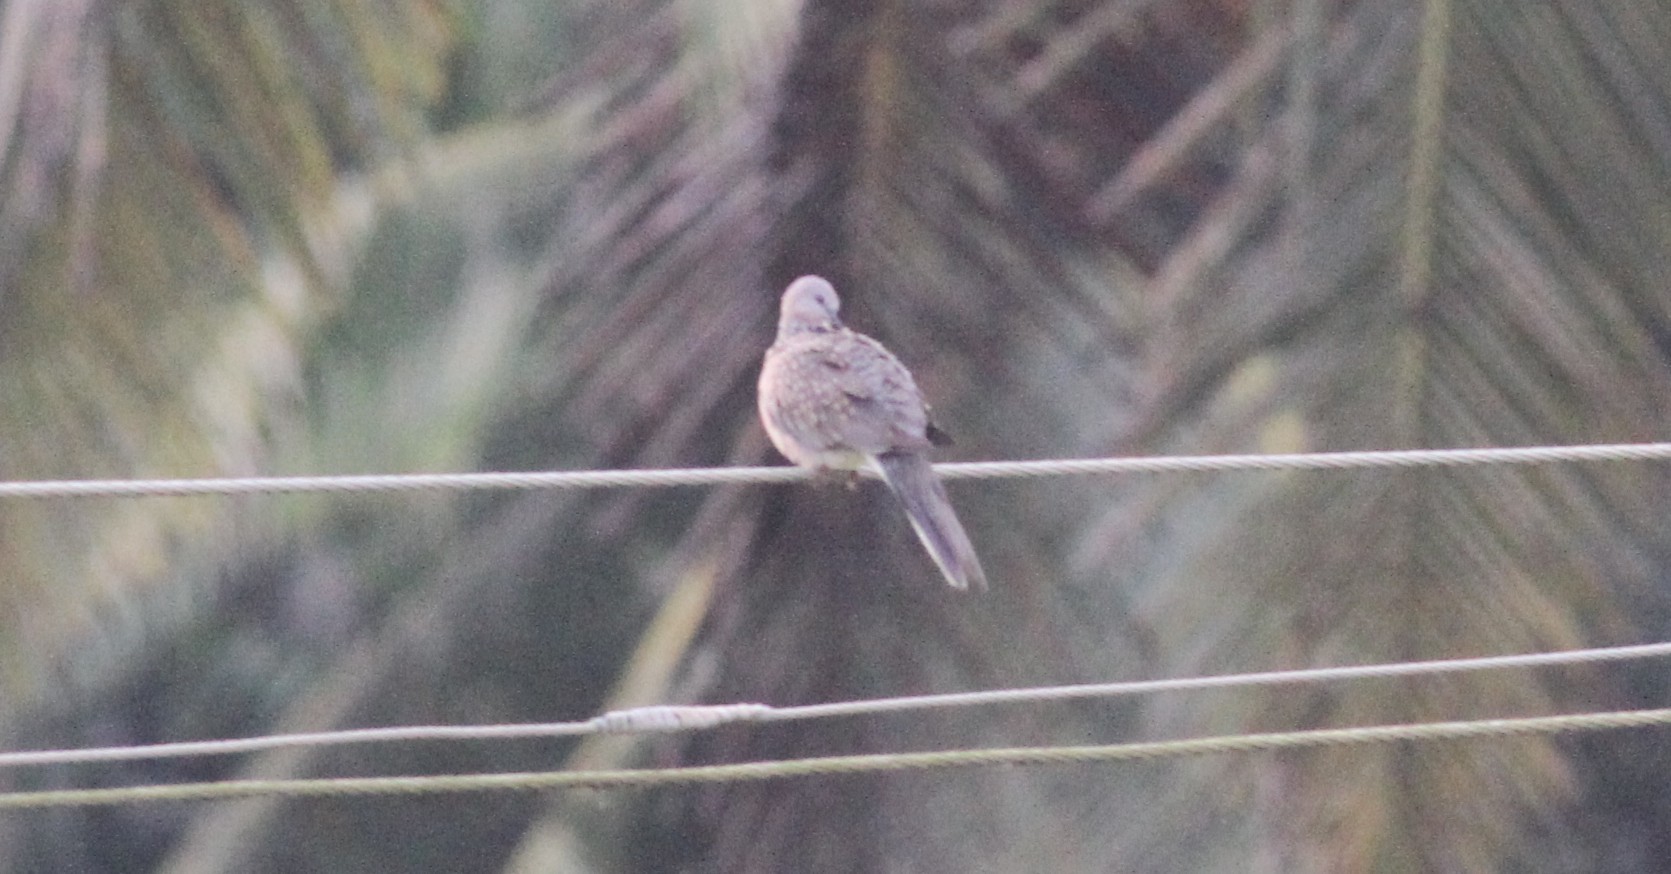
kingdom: Animalia
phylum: Chordata
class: Aves
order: Columbiformes
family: Columbidae
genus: Spilopelia
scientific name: Spilopelia chinensis
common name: Spotted dove
